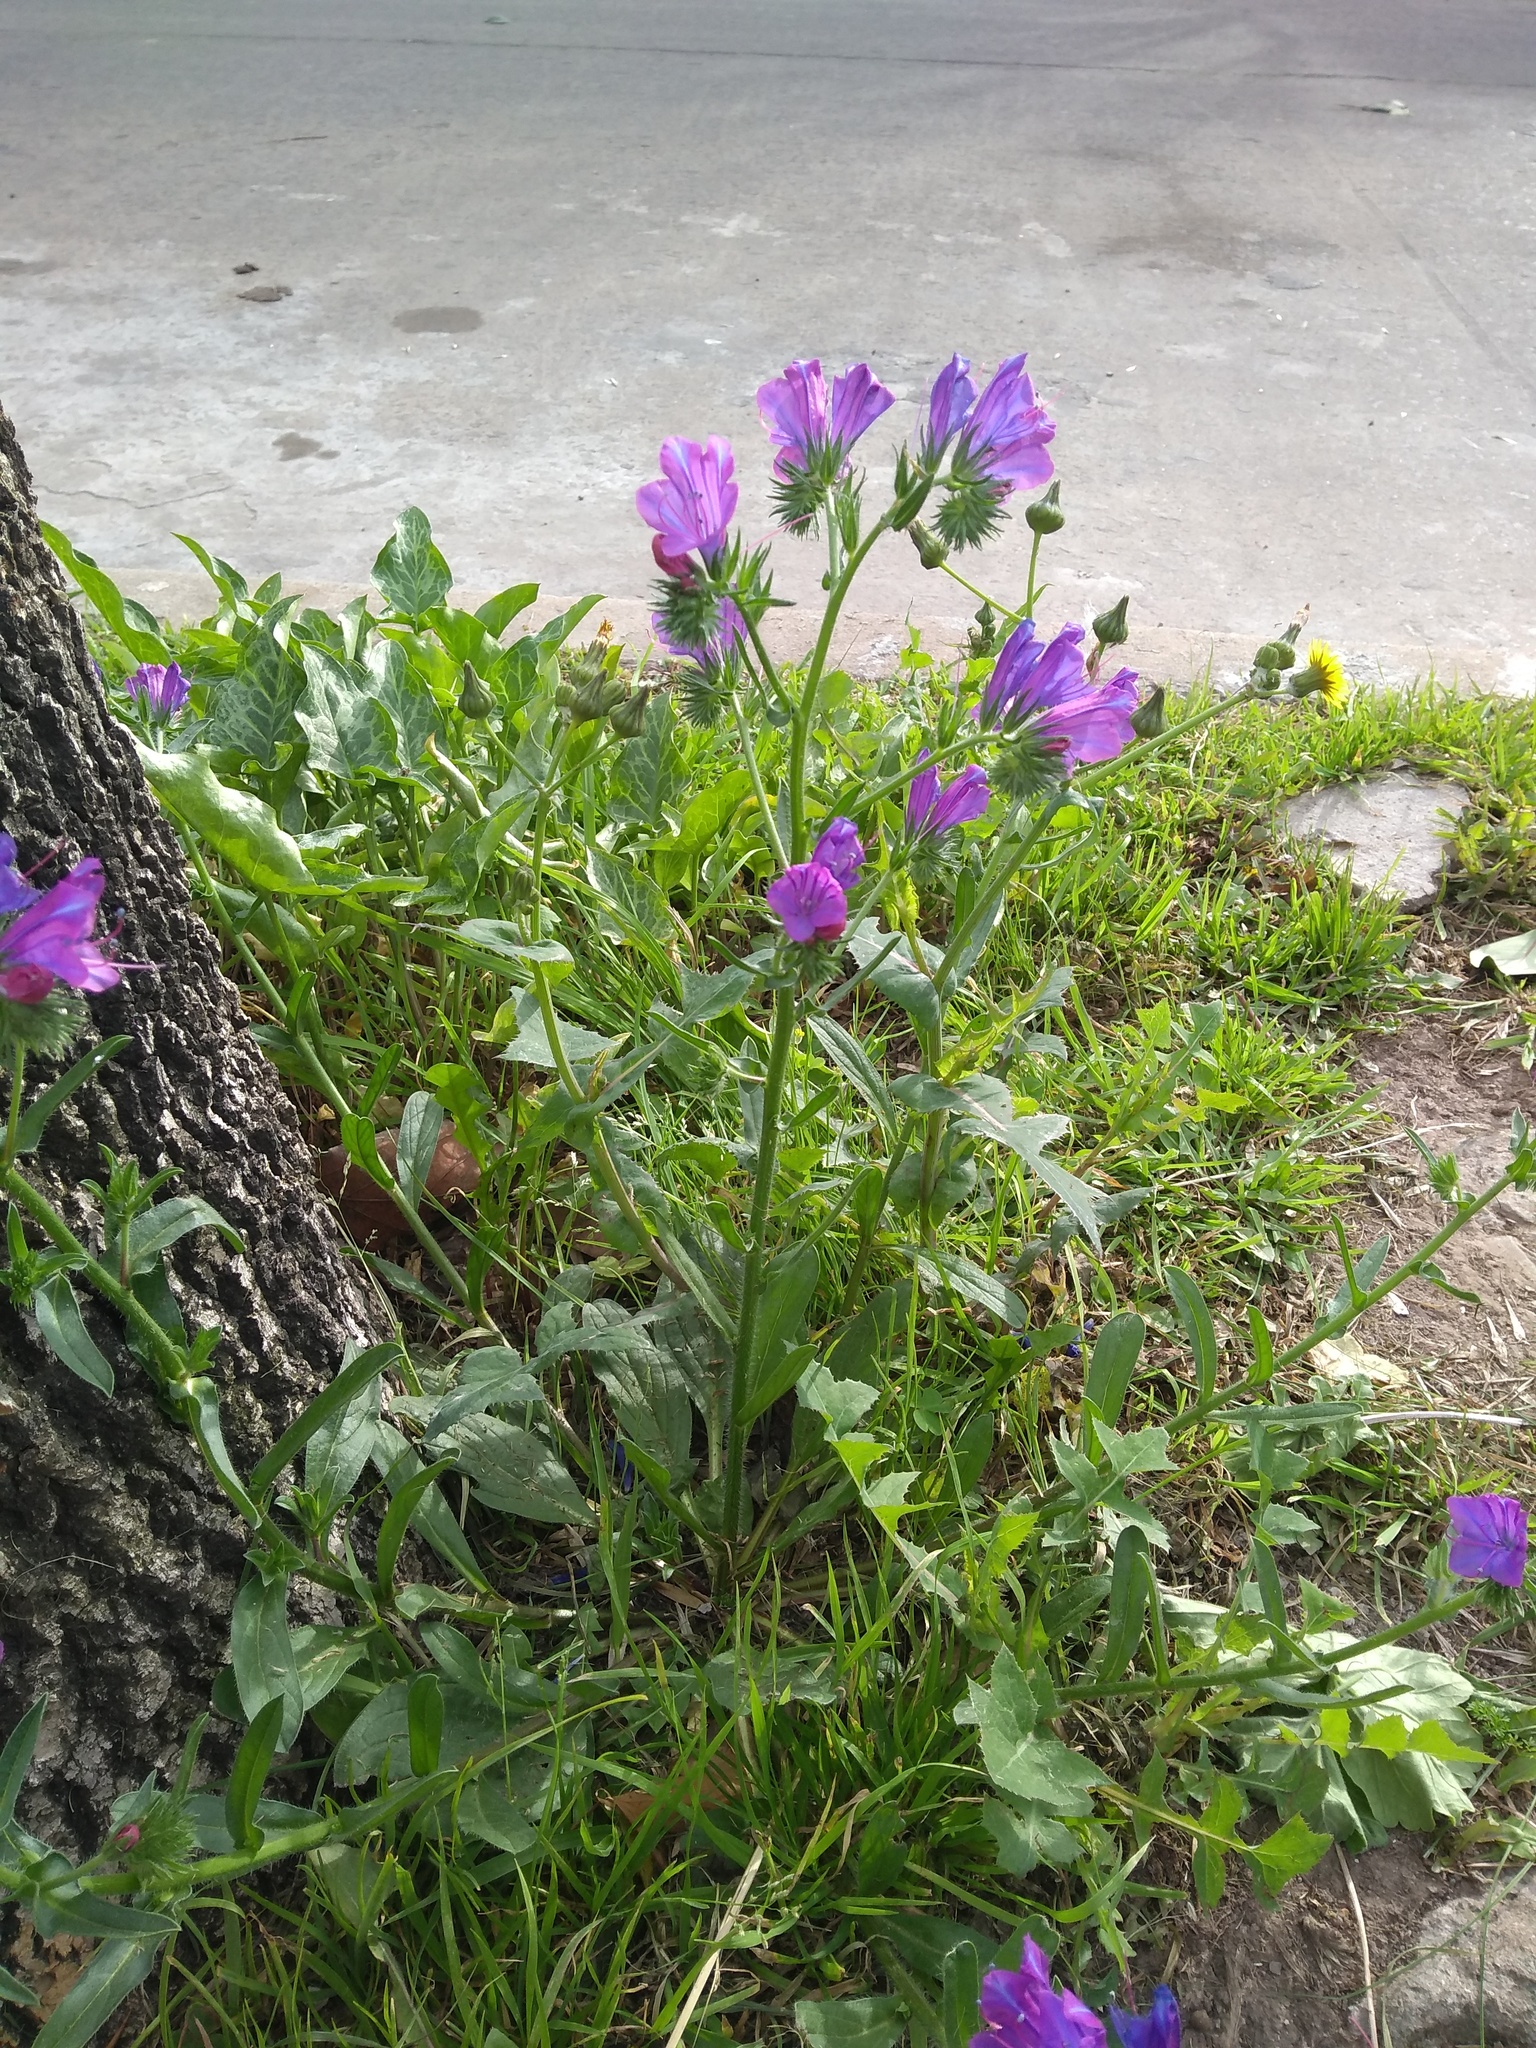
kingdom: Plantae
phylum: Tracheophyta
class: Magnoliopsida
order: Boraginales
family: Boraginaceae
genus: Echium
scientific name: Echium plantagineum
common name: Purple viper's-bugloss
